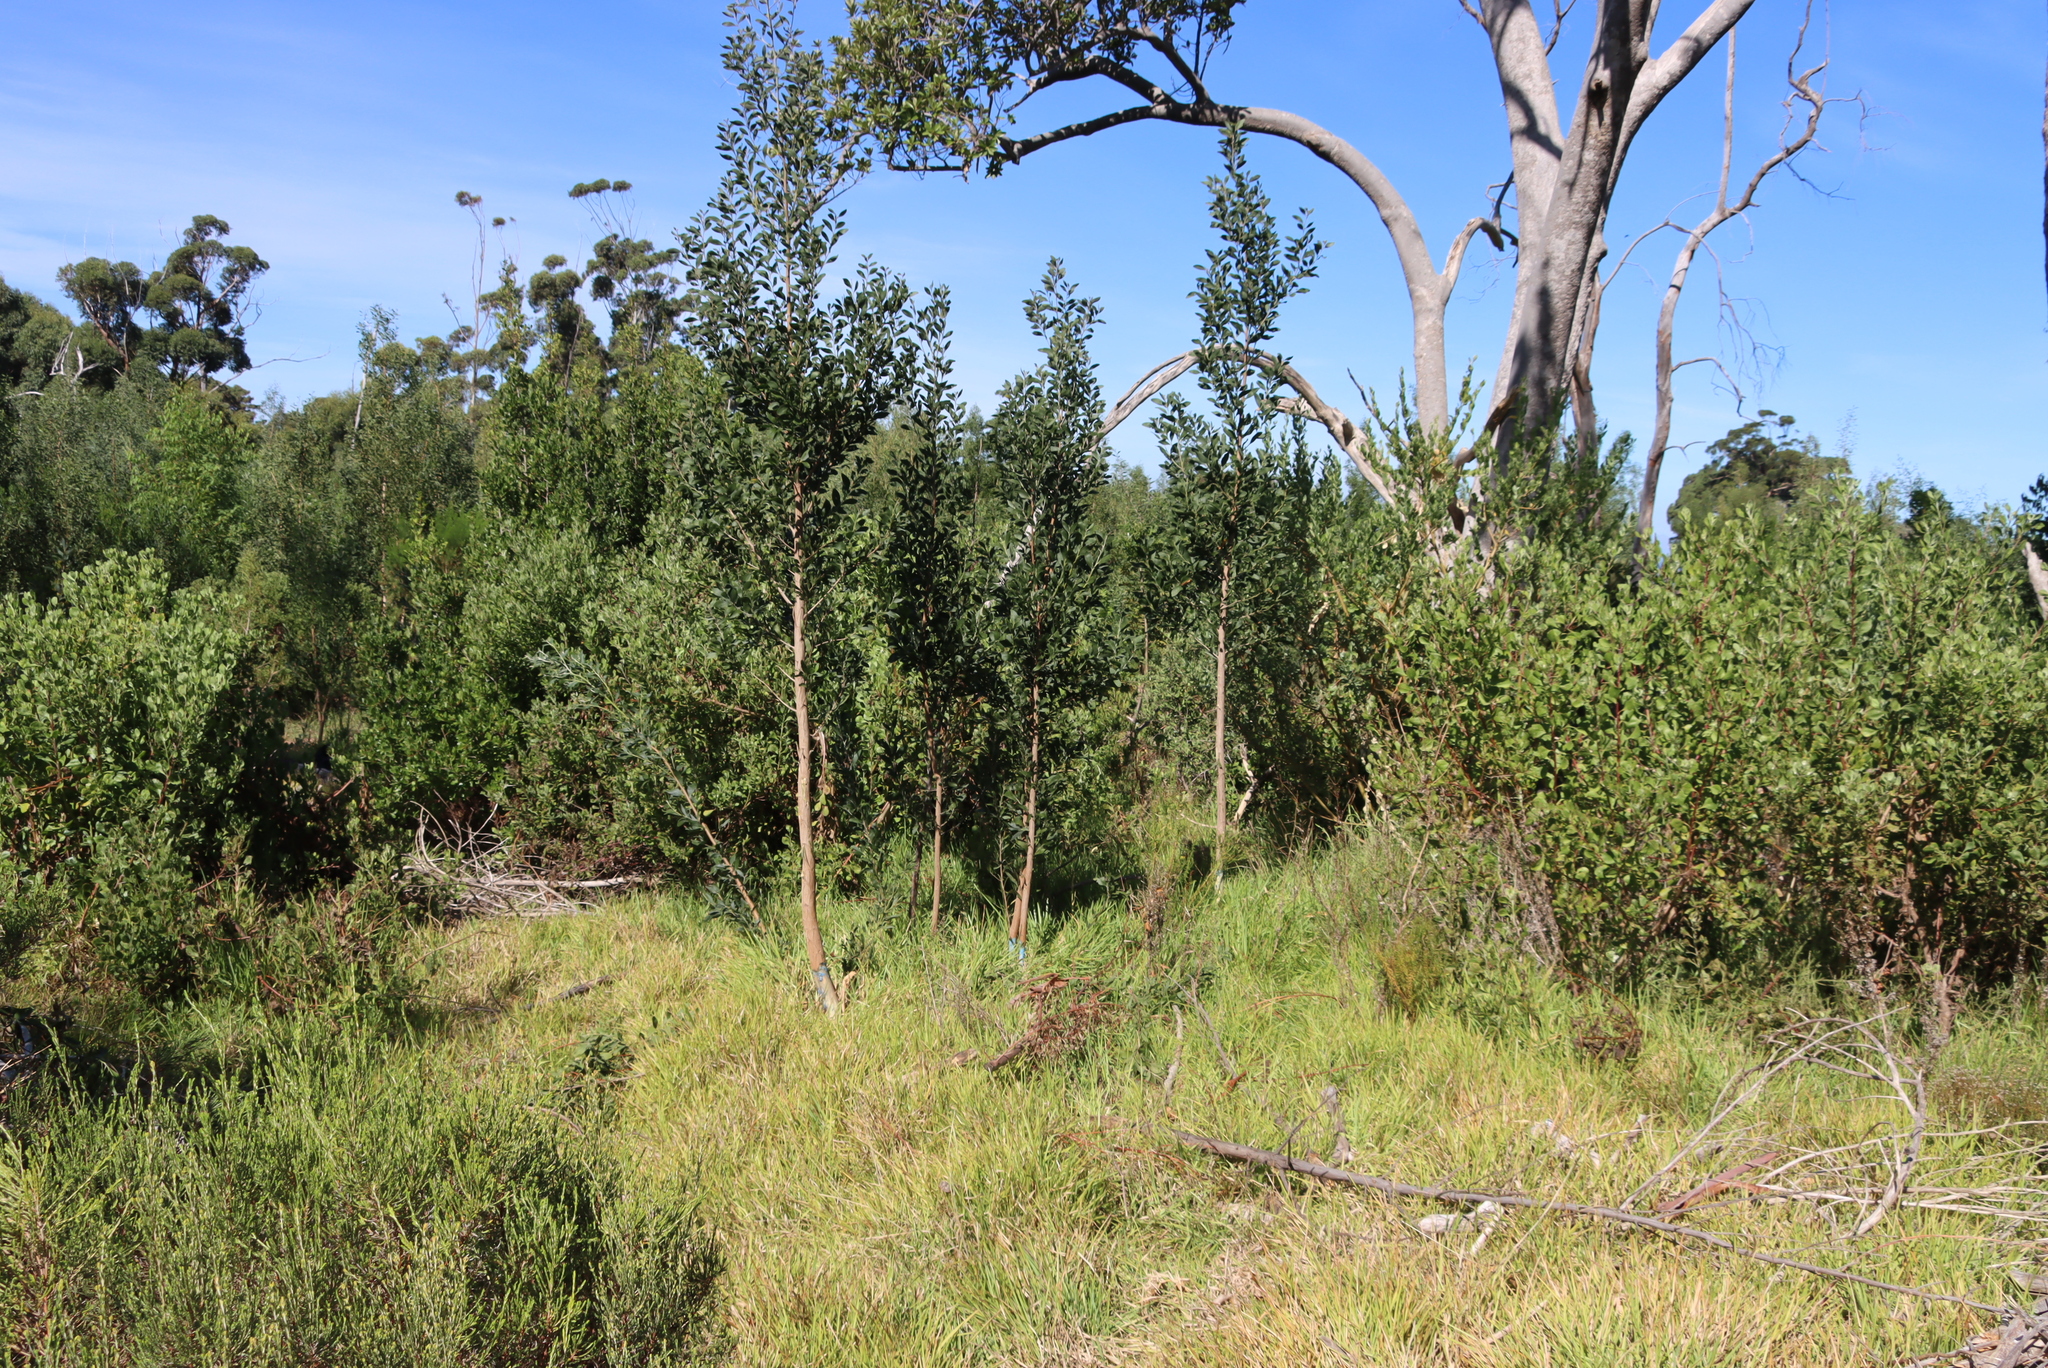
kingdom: Plantae
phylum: Tracheophyta
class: Magnoliopsida
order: Fabales
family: Fabaceae
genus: Acacia
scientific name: Acacia melanoxylon
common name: Blackwood
